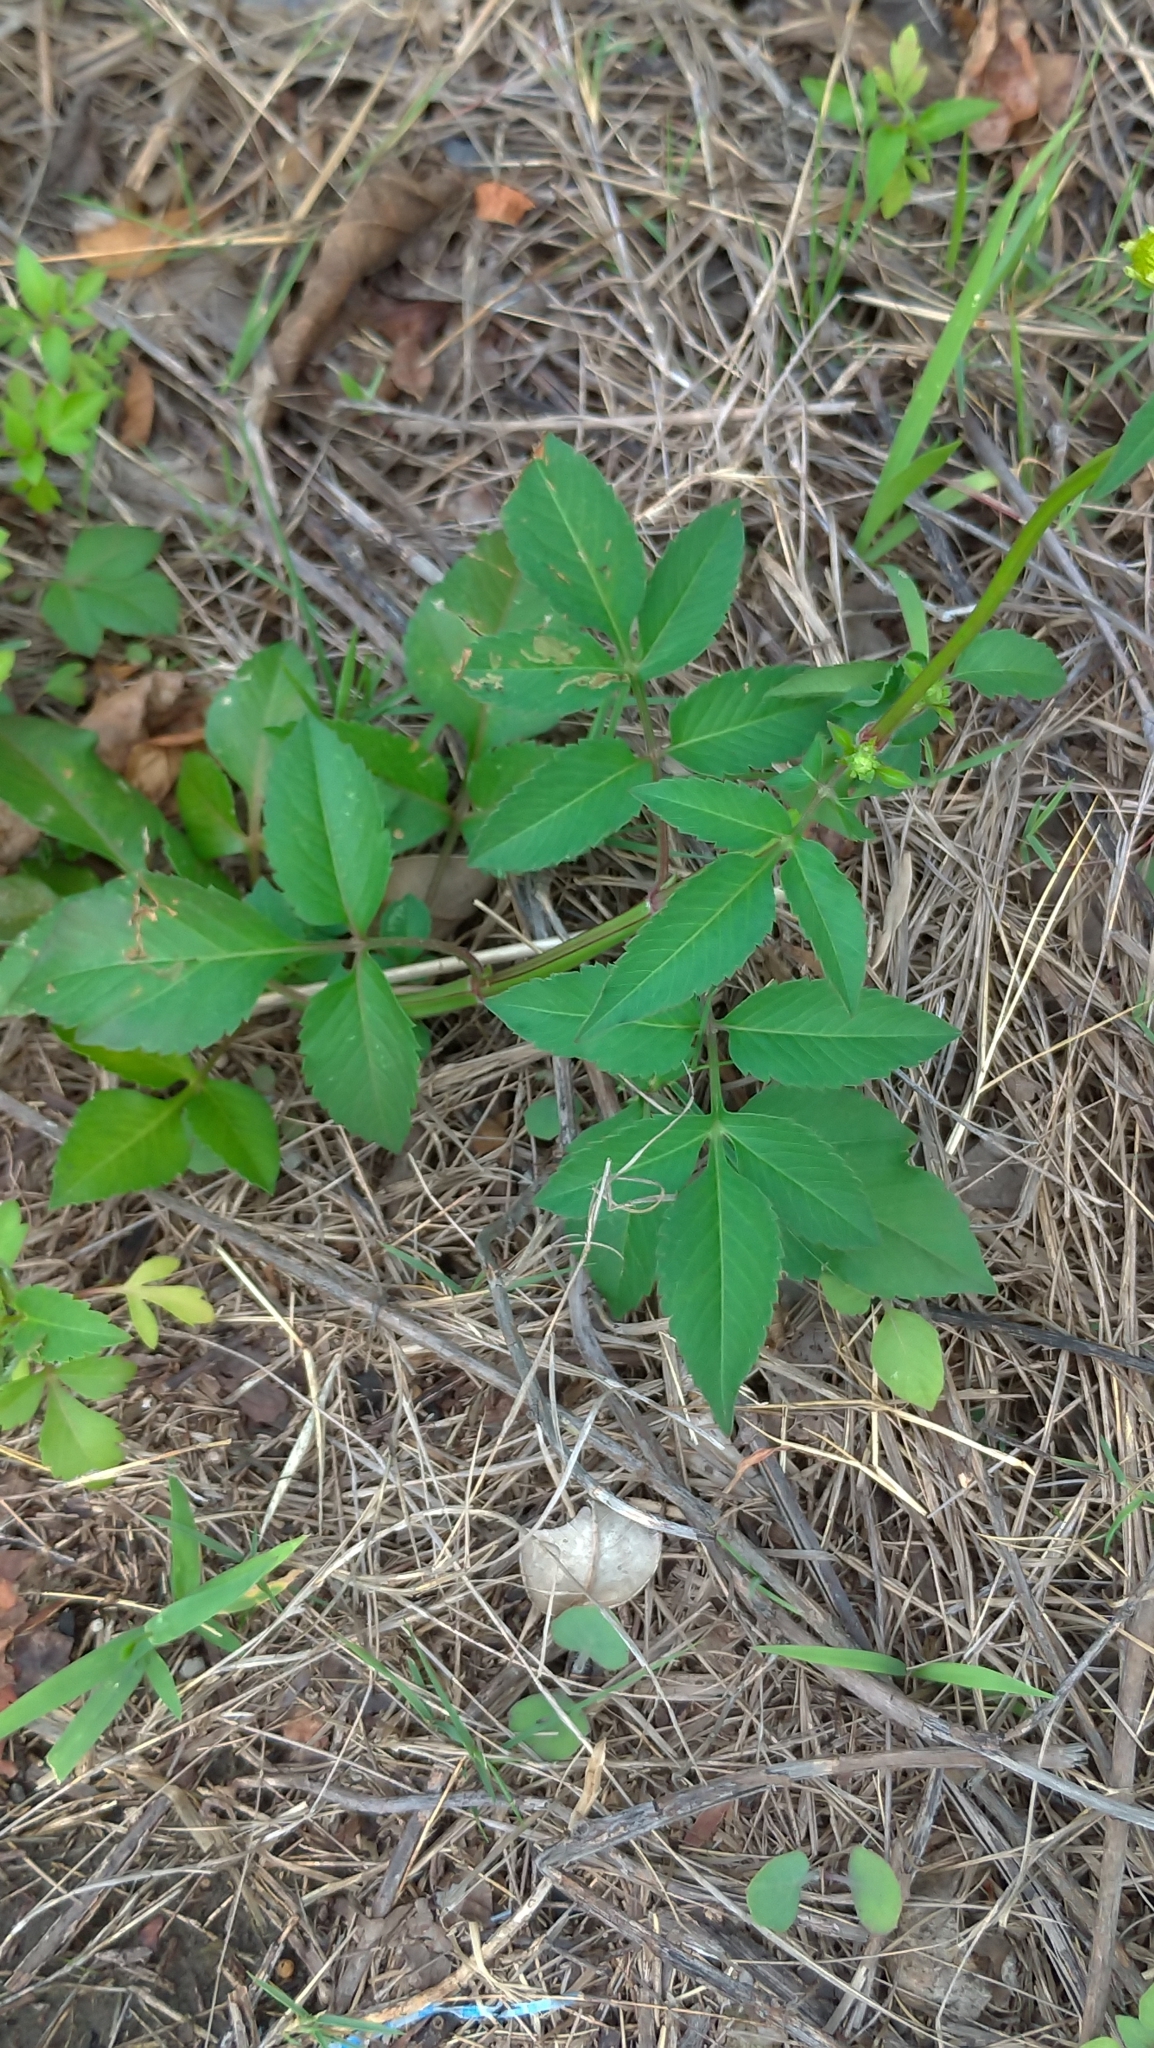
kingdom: Plantae
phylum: Tracheophyta
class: Magnoliopsida
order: Asterales
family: Asteraceae
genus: Bidens
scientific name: Bidens alba
